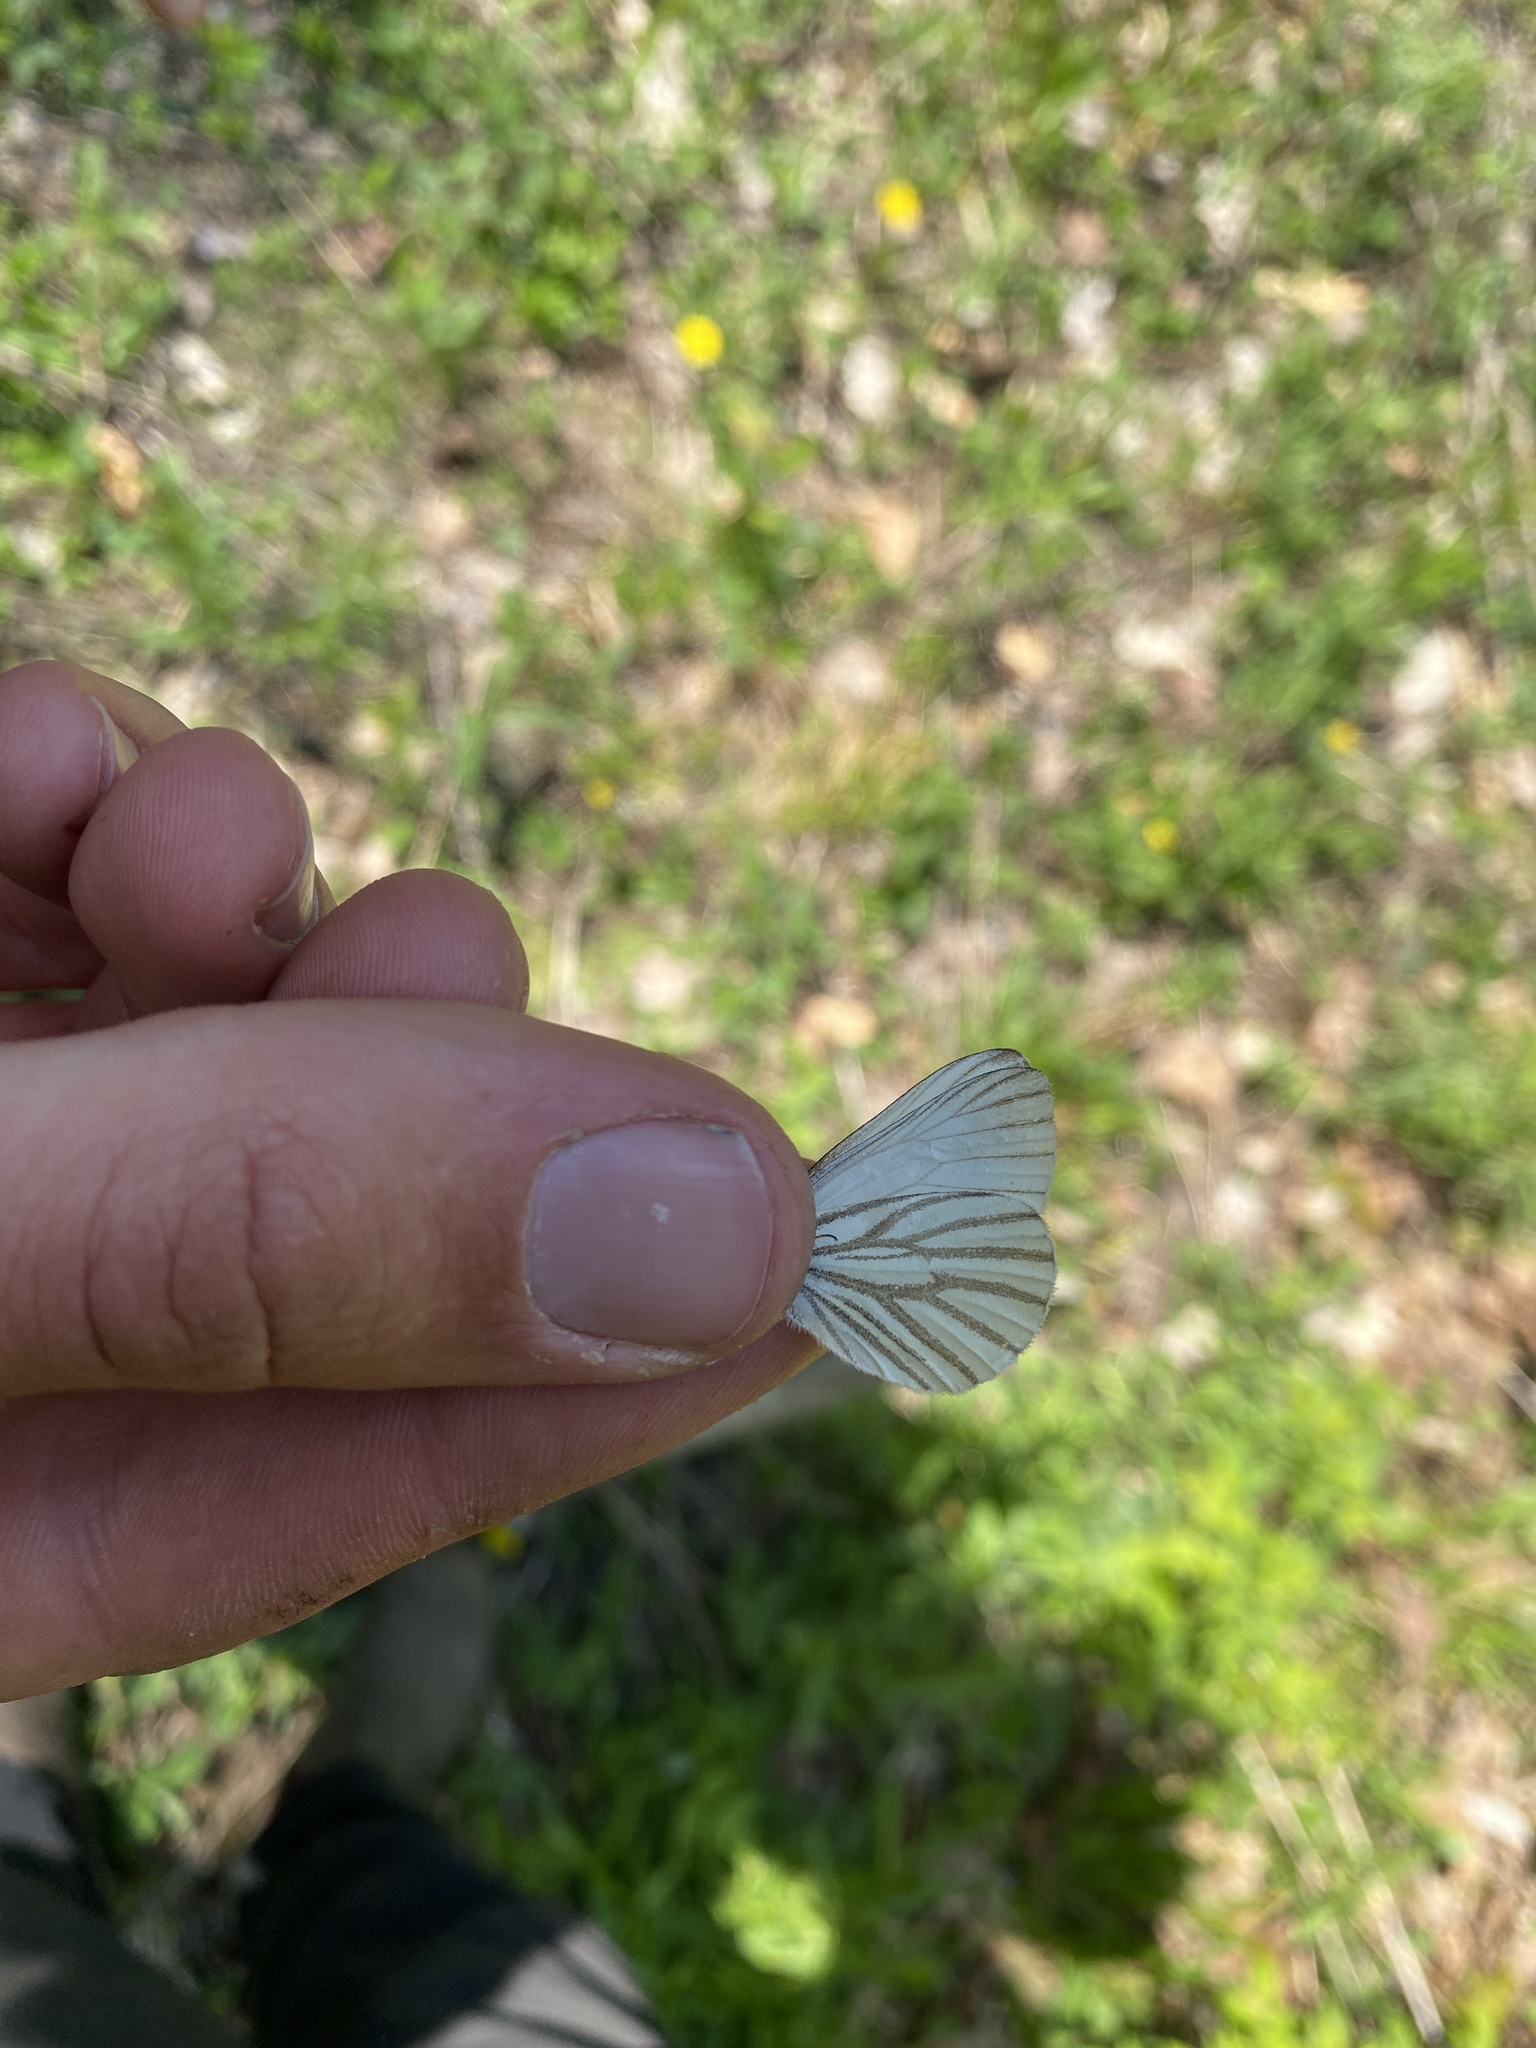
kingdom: Animalia
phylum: Arthropoda
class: Insecta
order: Lepidoptera
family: Pieridae
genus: Pieris
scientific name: Pieris oleracea
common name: Mustard white
